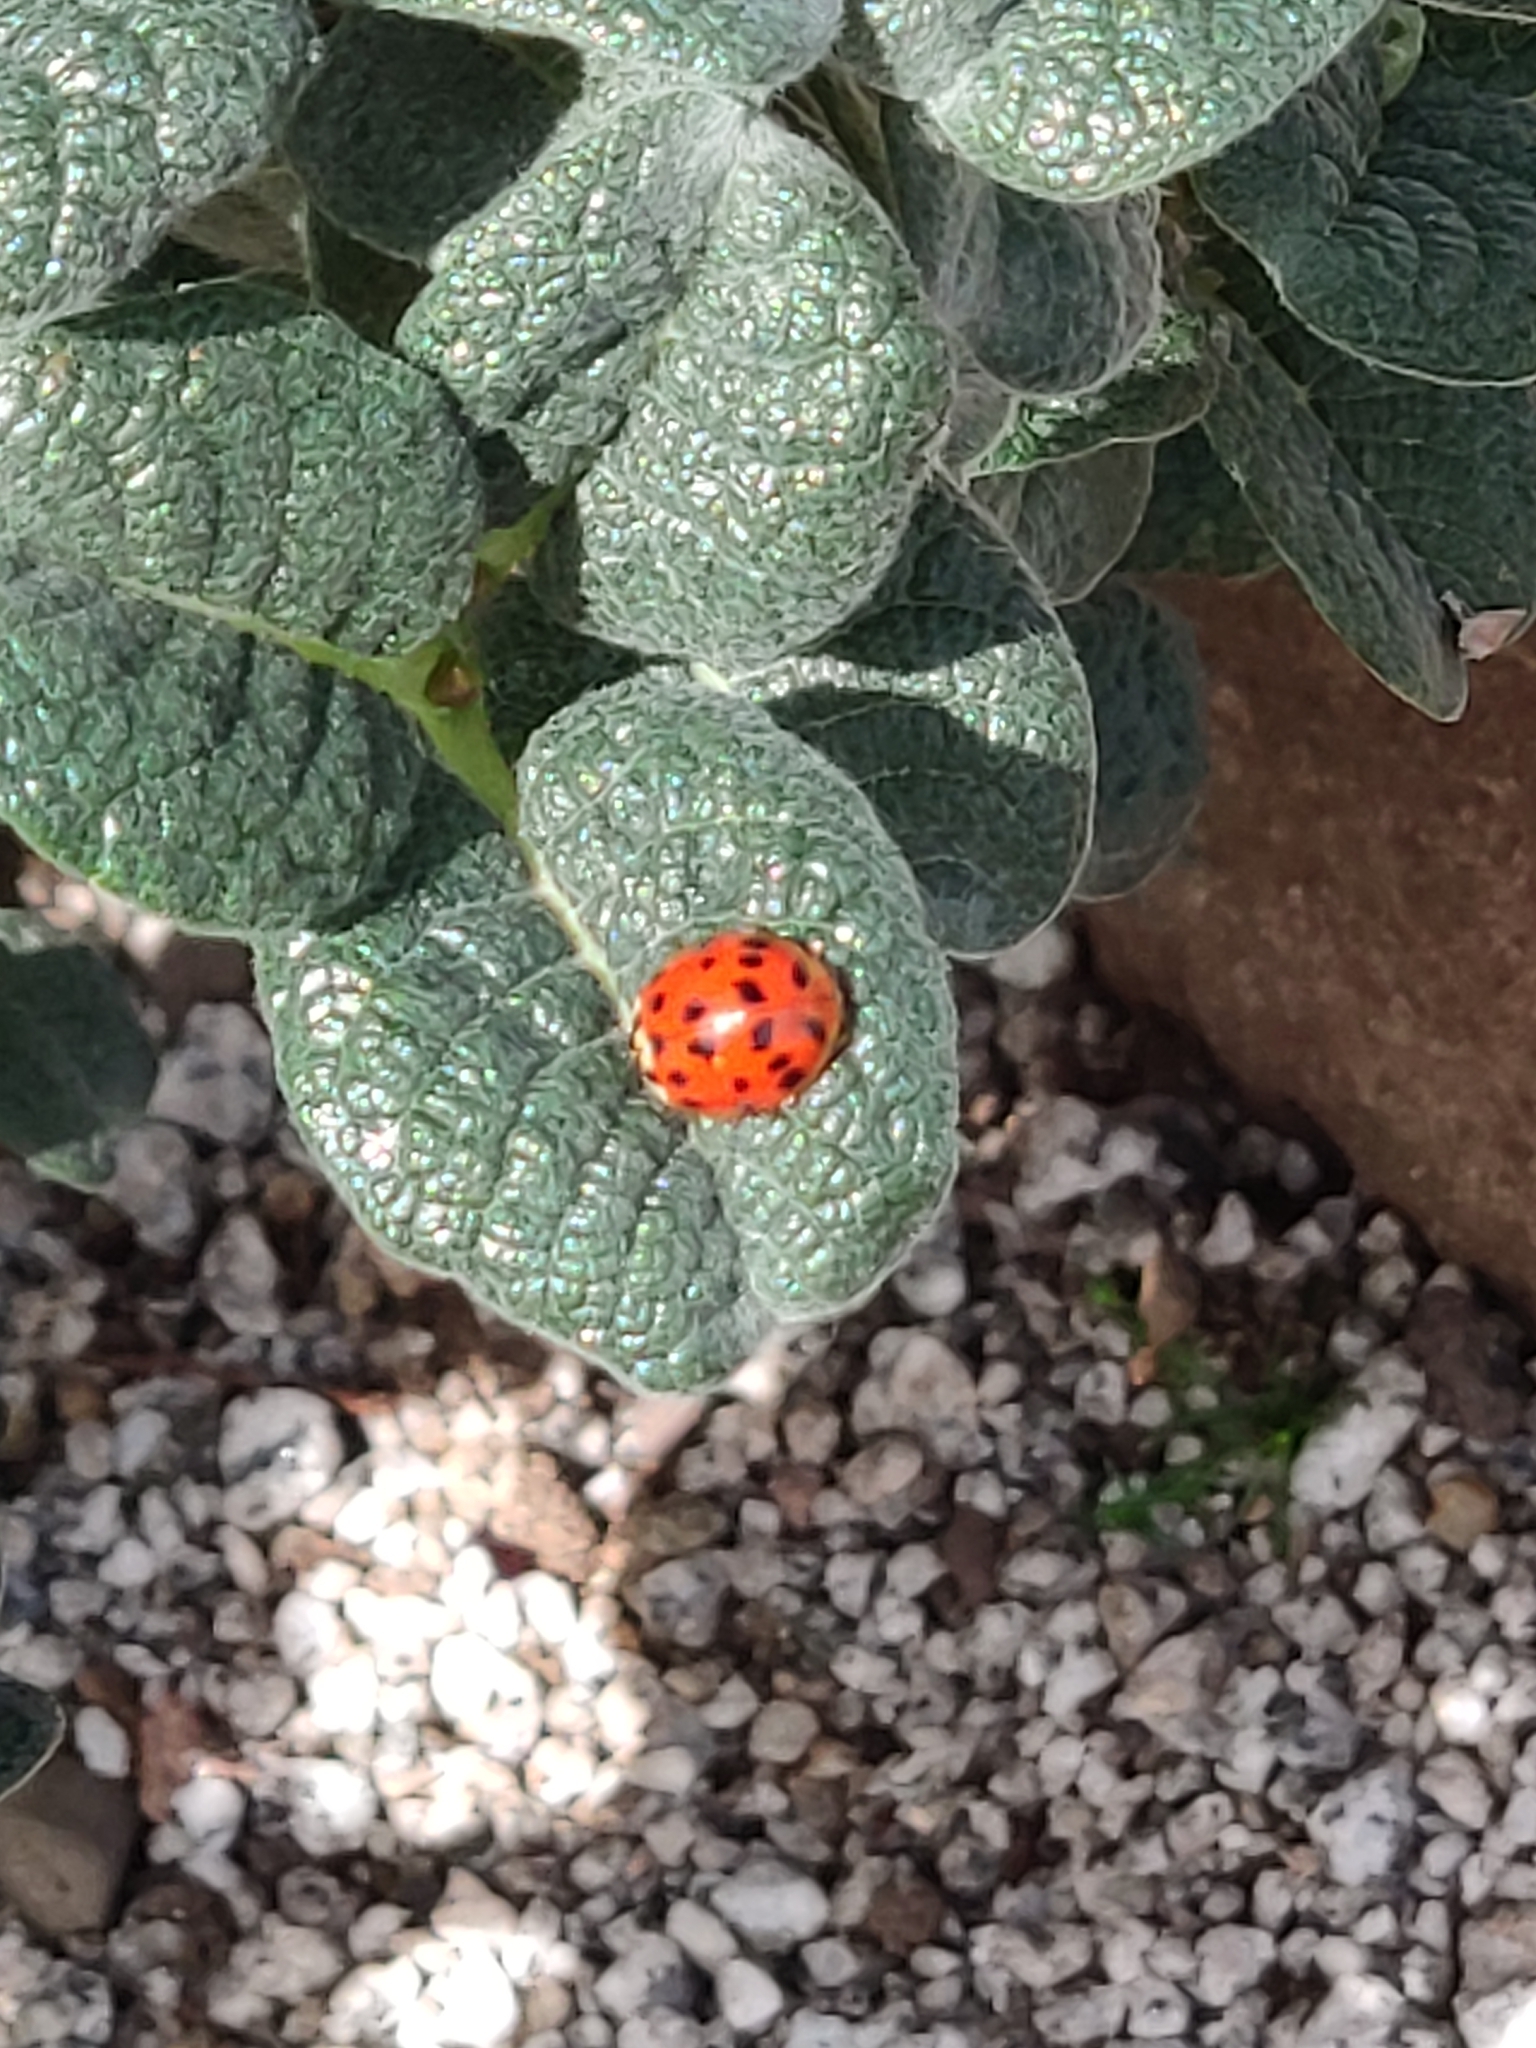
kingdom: Animalia
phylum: Arthropoda
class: Insecta
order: Coleoptera
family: Coccinellidae
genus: Harmonia
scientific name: Harmonia axyridis
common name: Harlequin ladybird
